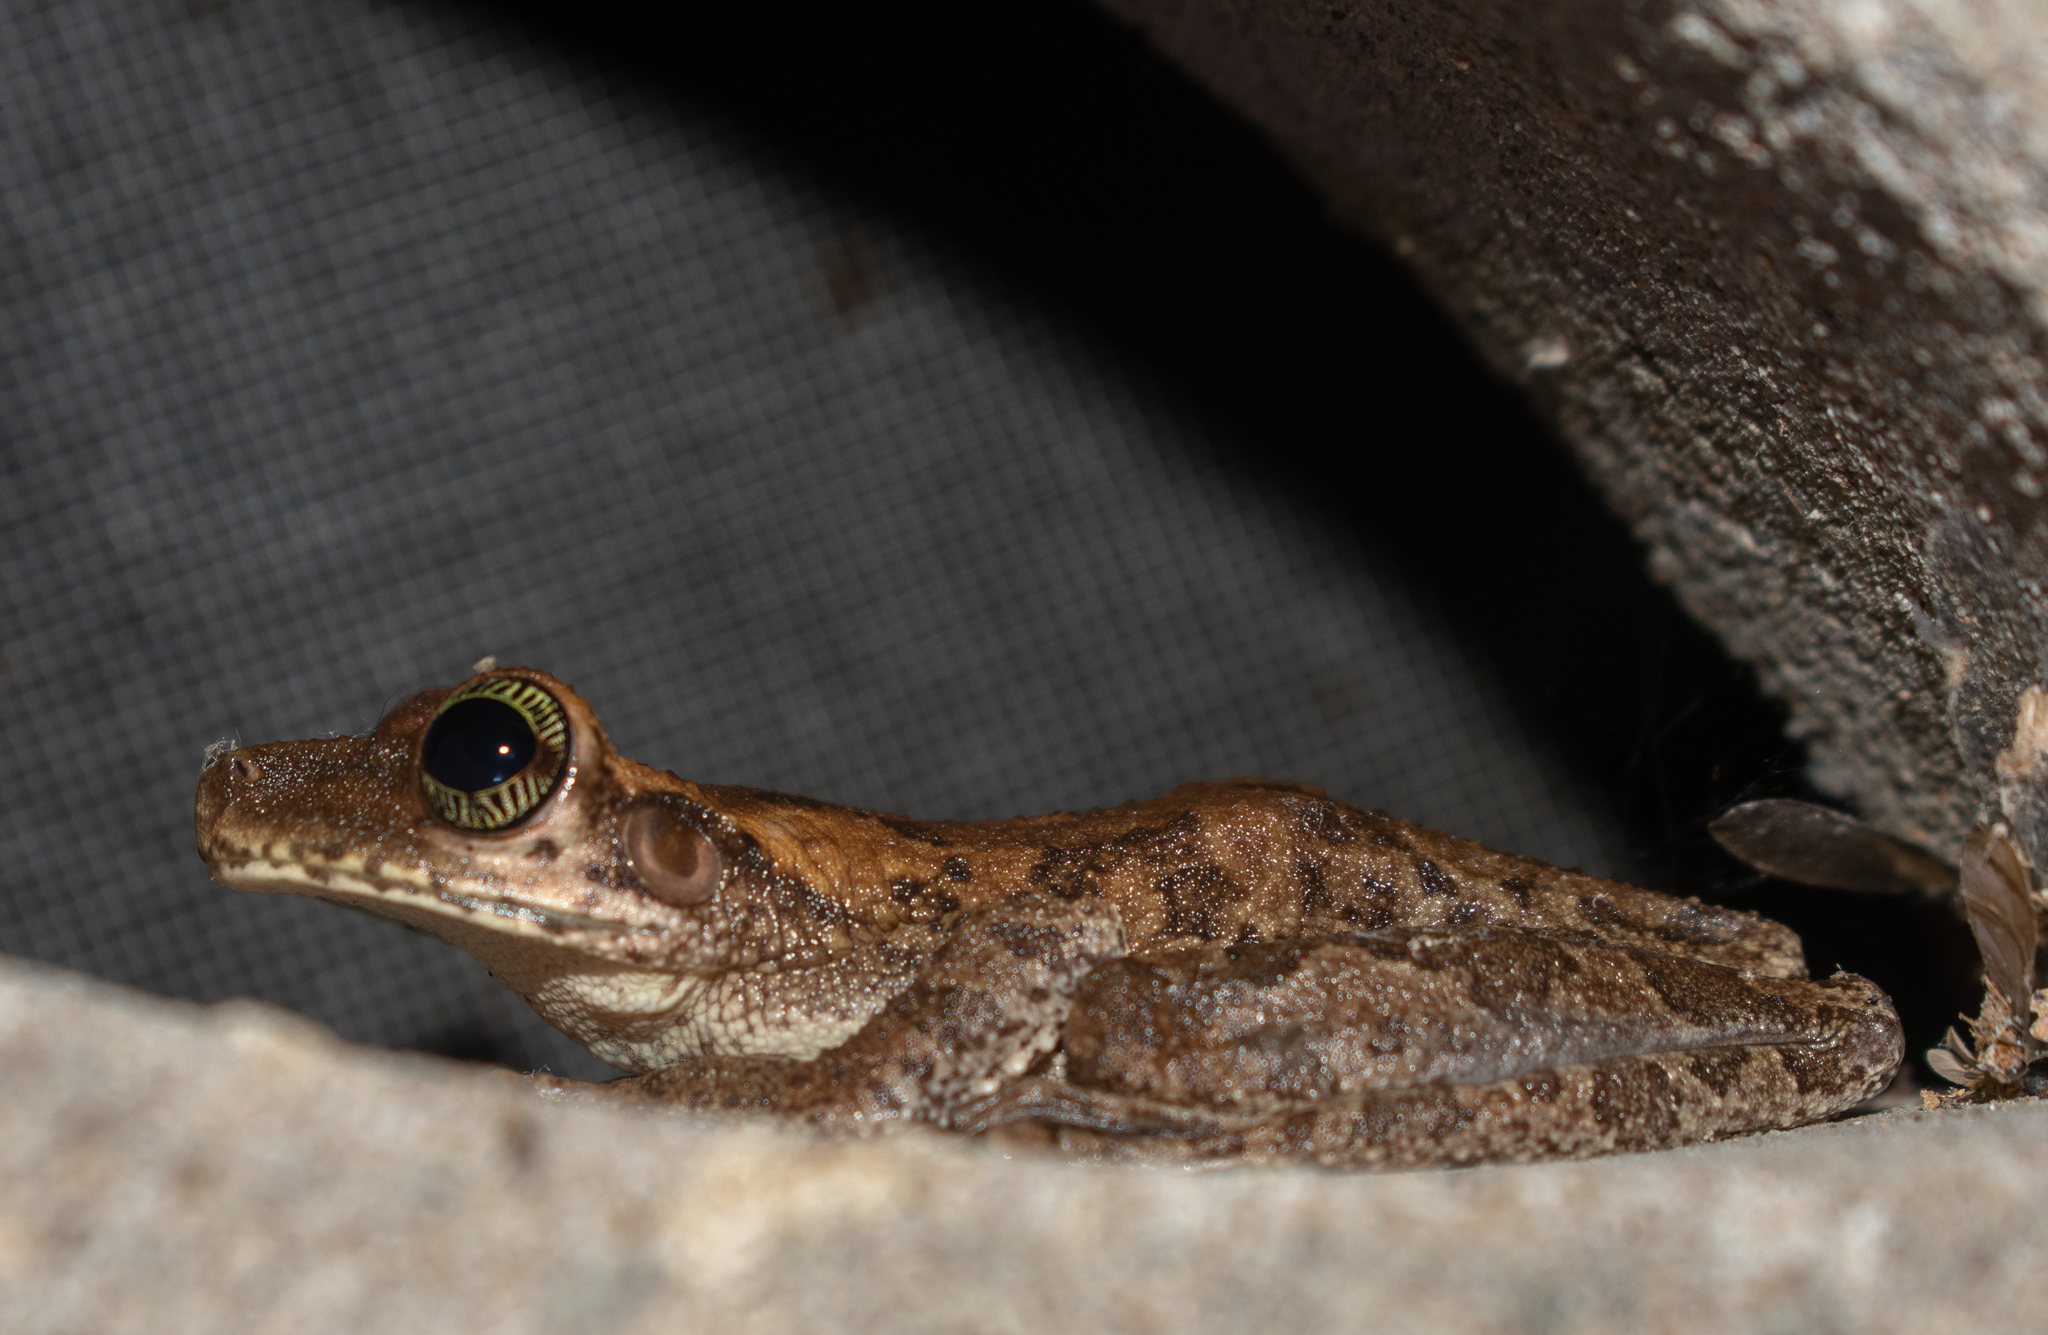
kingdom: Animalia
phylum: Chordata
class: Amphibia
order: Anura
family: Hylidae
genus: Osteocephalus
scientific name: Osteocephalus taurinus
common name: Manaus slender-legged treefrog
